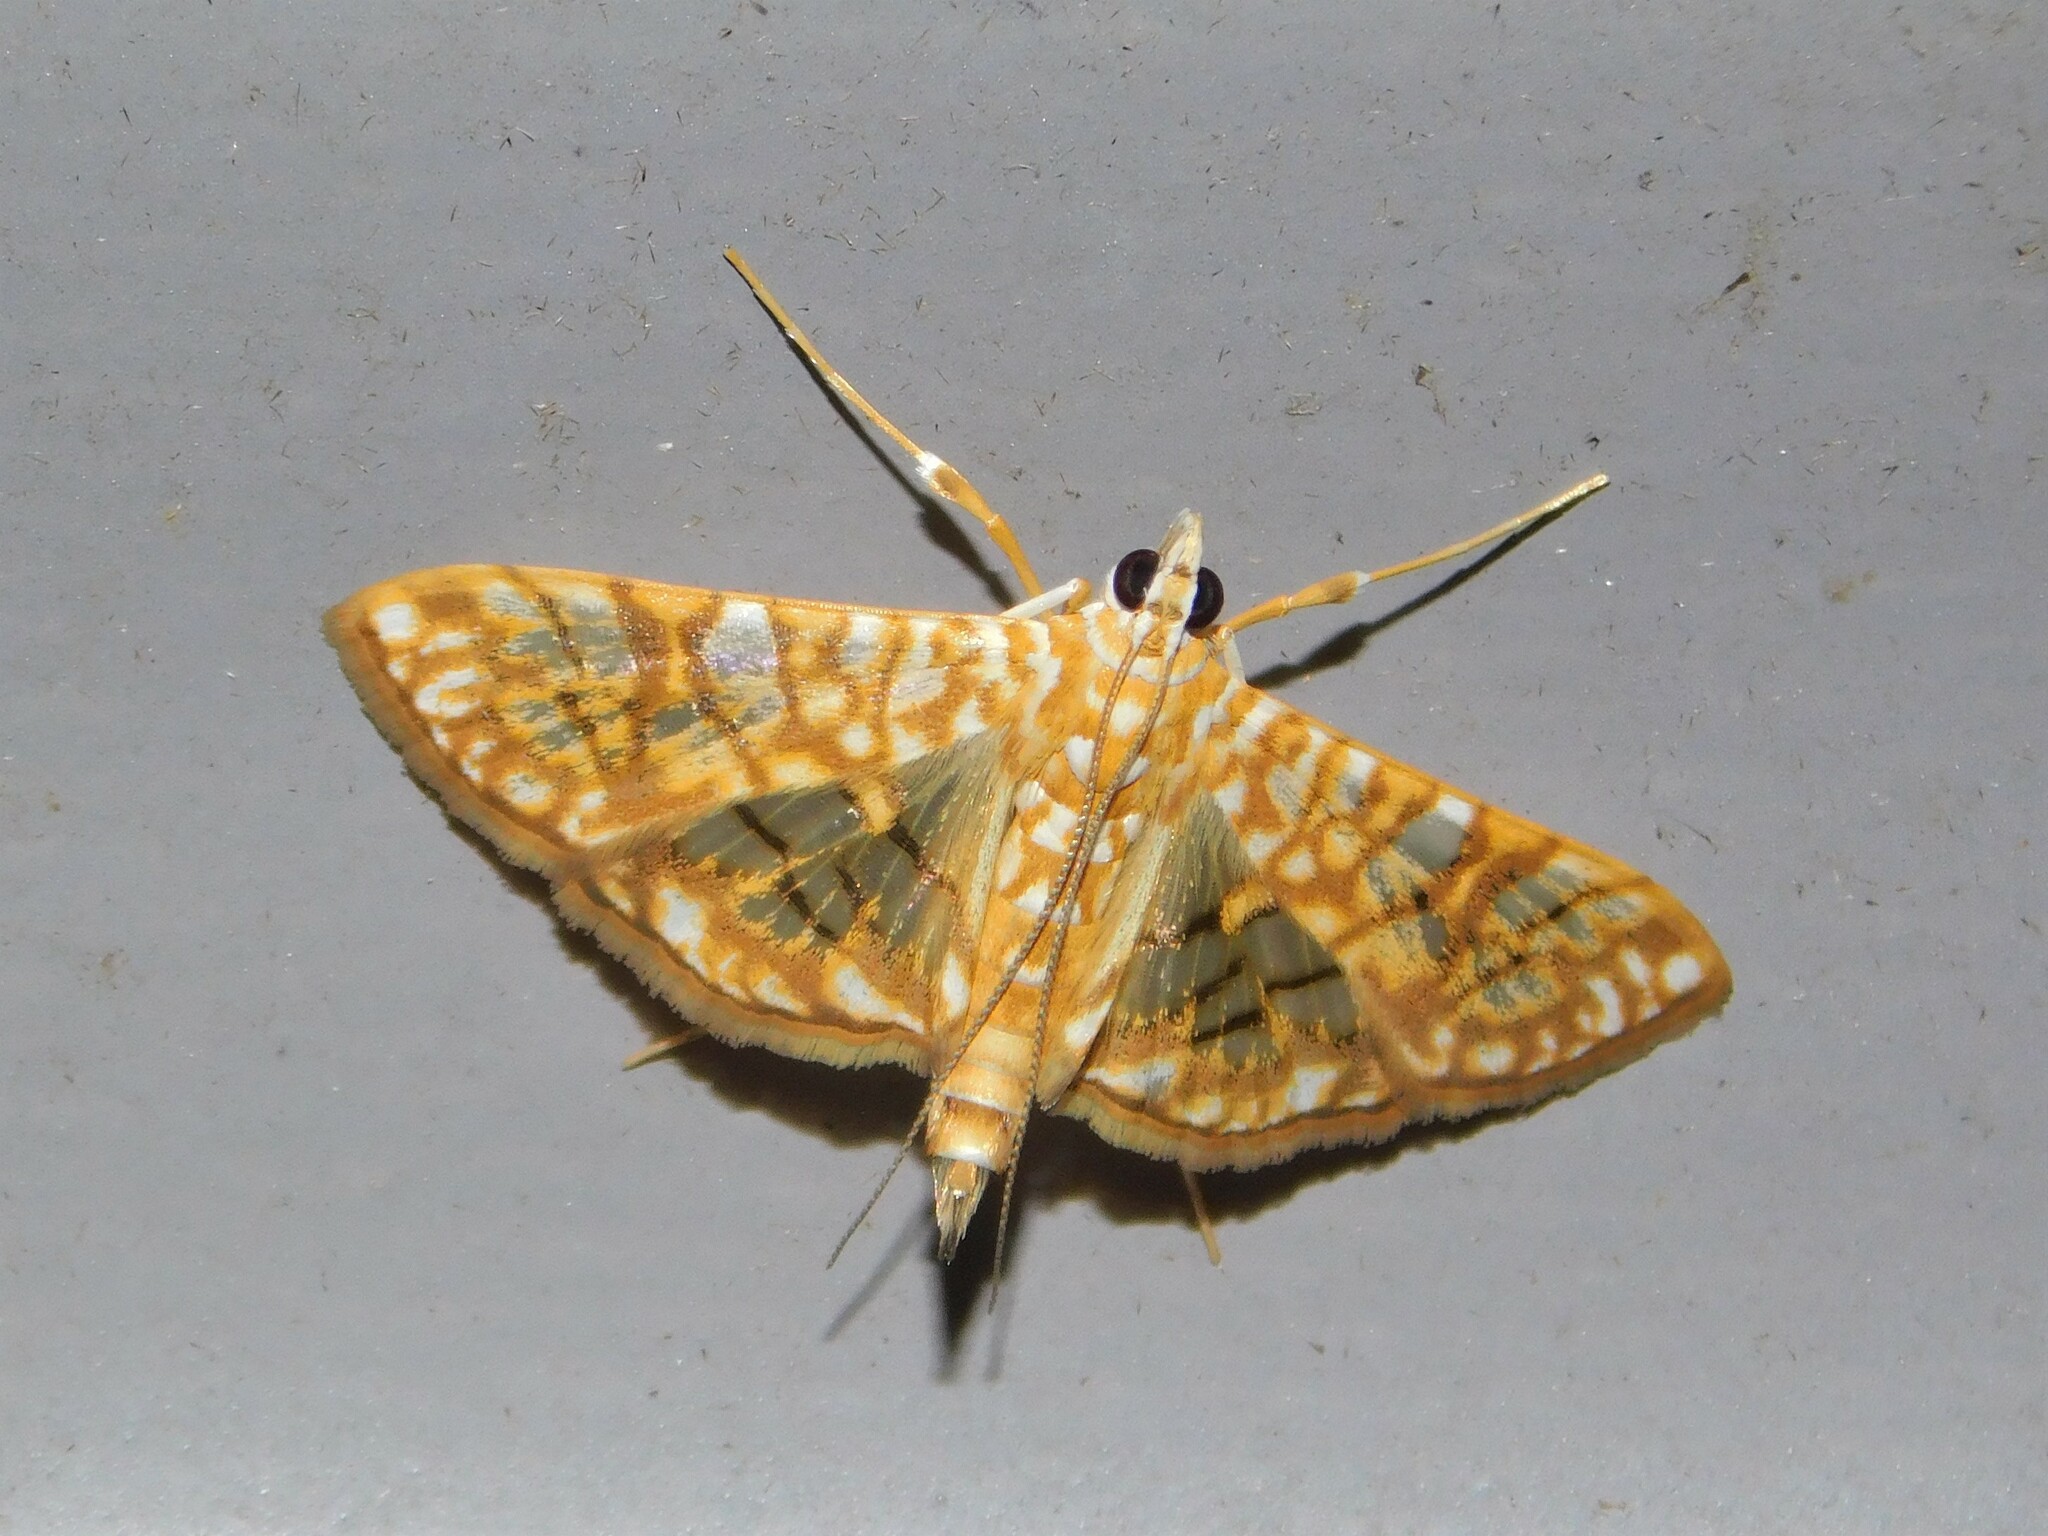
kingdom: Animalia
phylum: Arthropoda
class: Insecta
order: Lepidoptera
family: Crambidae
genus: Synclera
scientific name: Synclera traducalis
